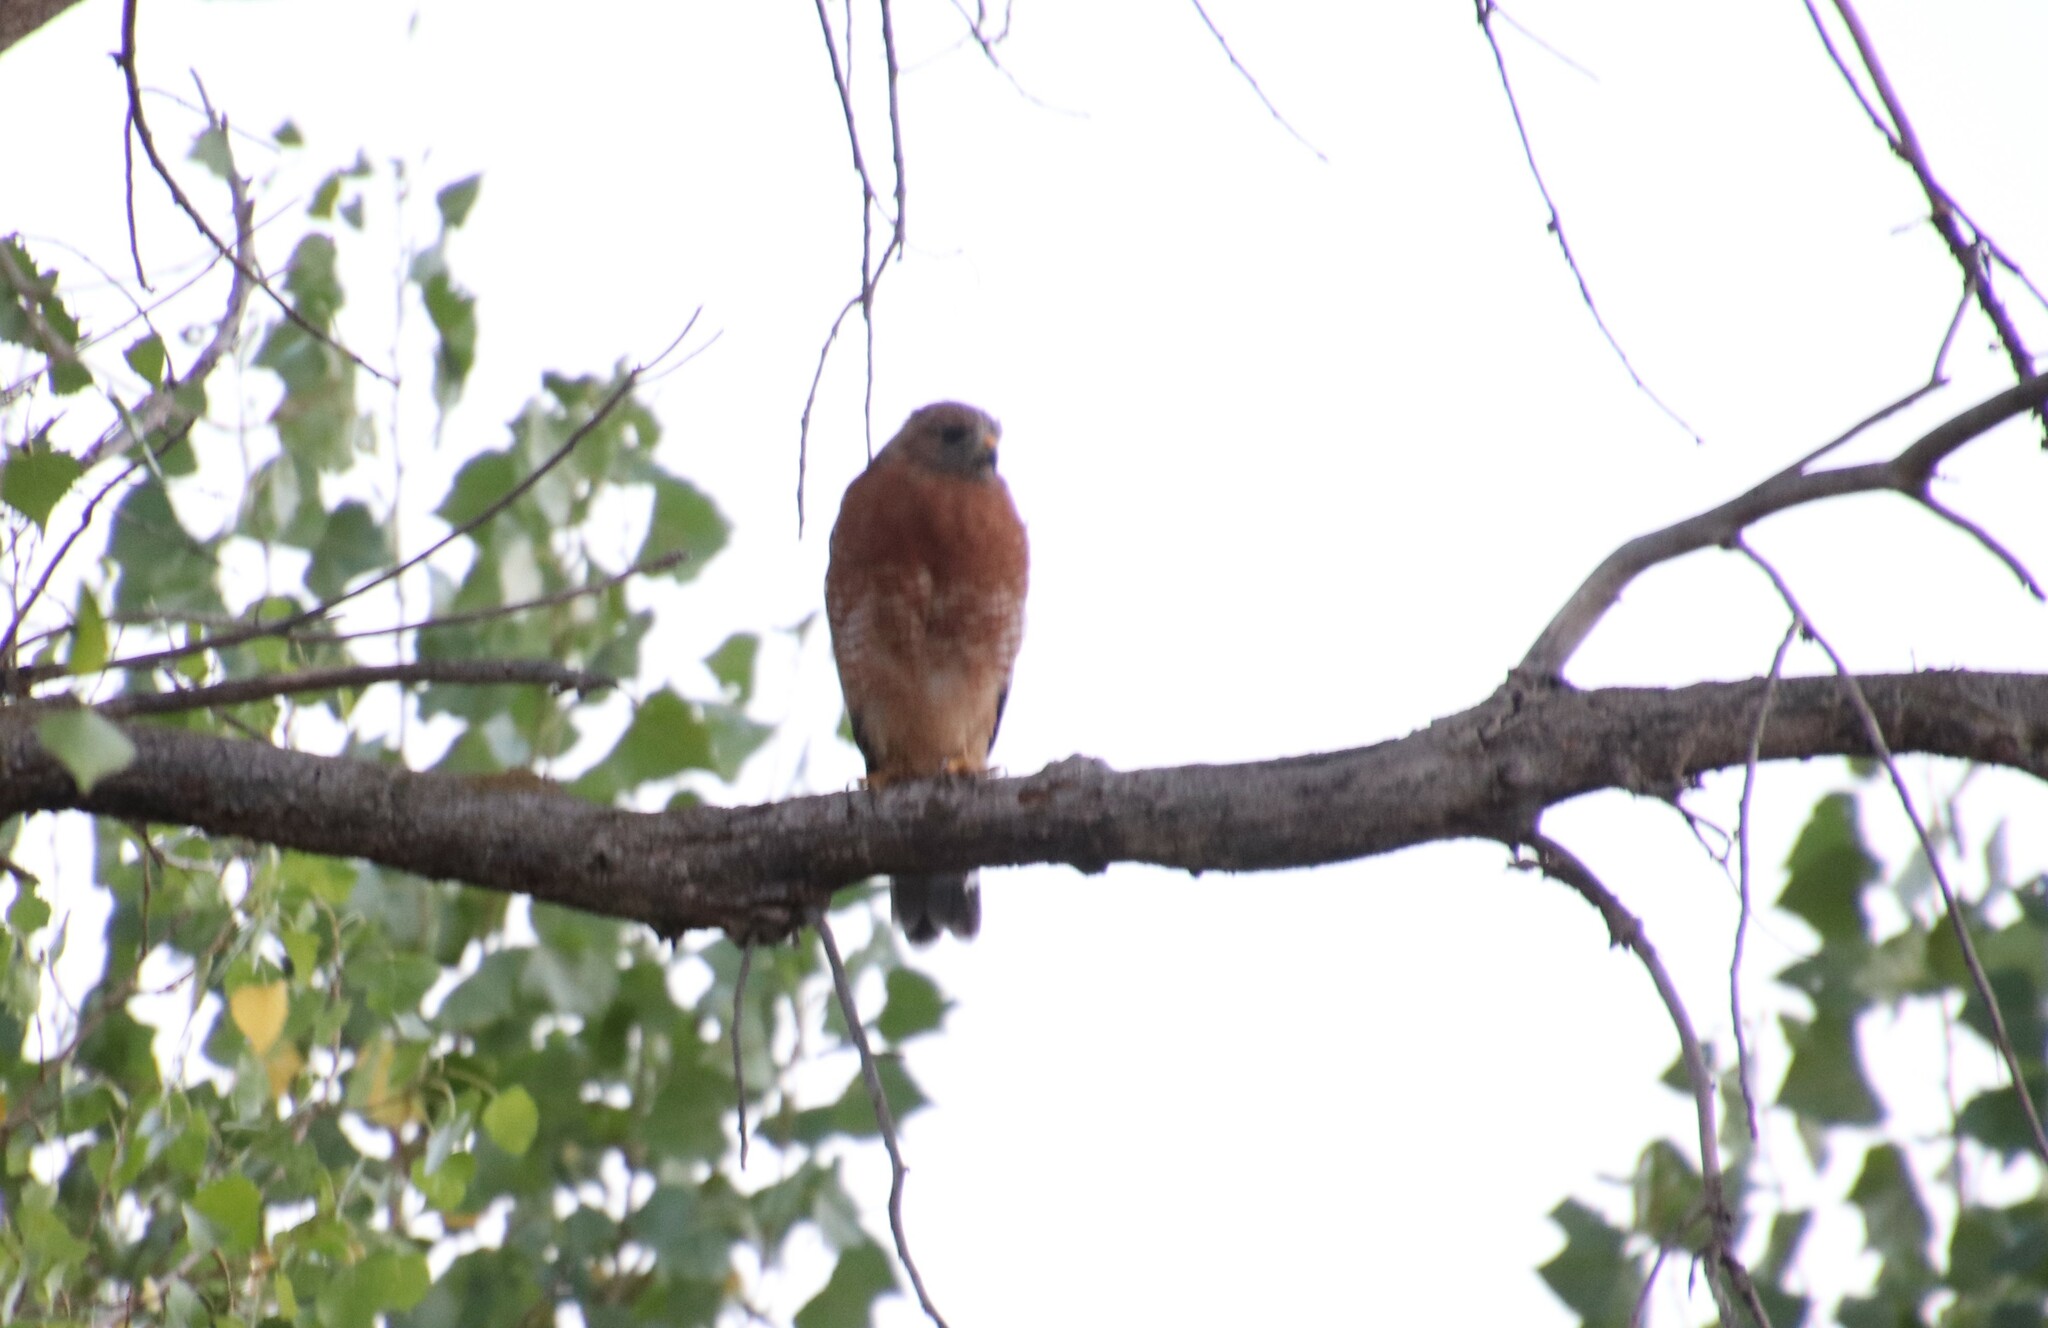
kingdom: Animalia
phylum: Chordata
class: Aves
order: Accipitriformes
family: Accipitridae
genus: Buteo
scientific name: Buteo lineatus
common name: Red-shouldered hawk
